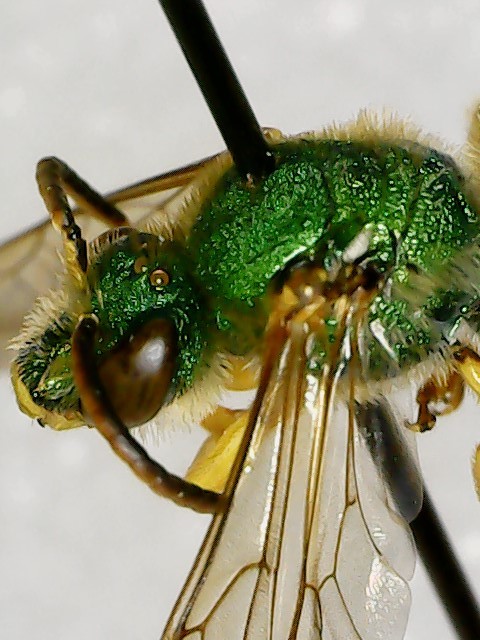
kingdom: Animalia
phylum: Arthropoda
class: Insecta
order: Hymenoptera
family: Halictidae
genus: Agapostemon
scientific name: Agapostemon splendens
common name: Brown-winged striped sweat bee
